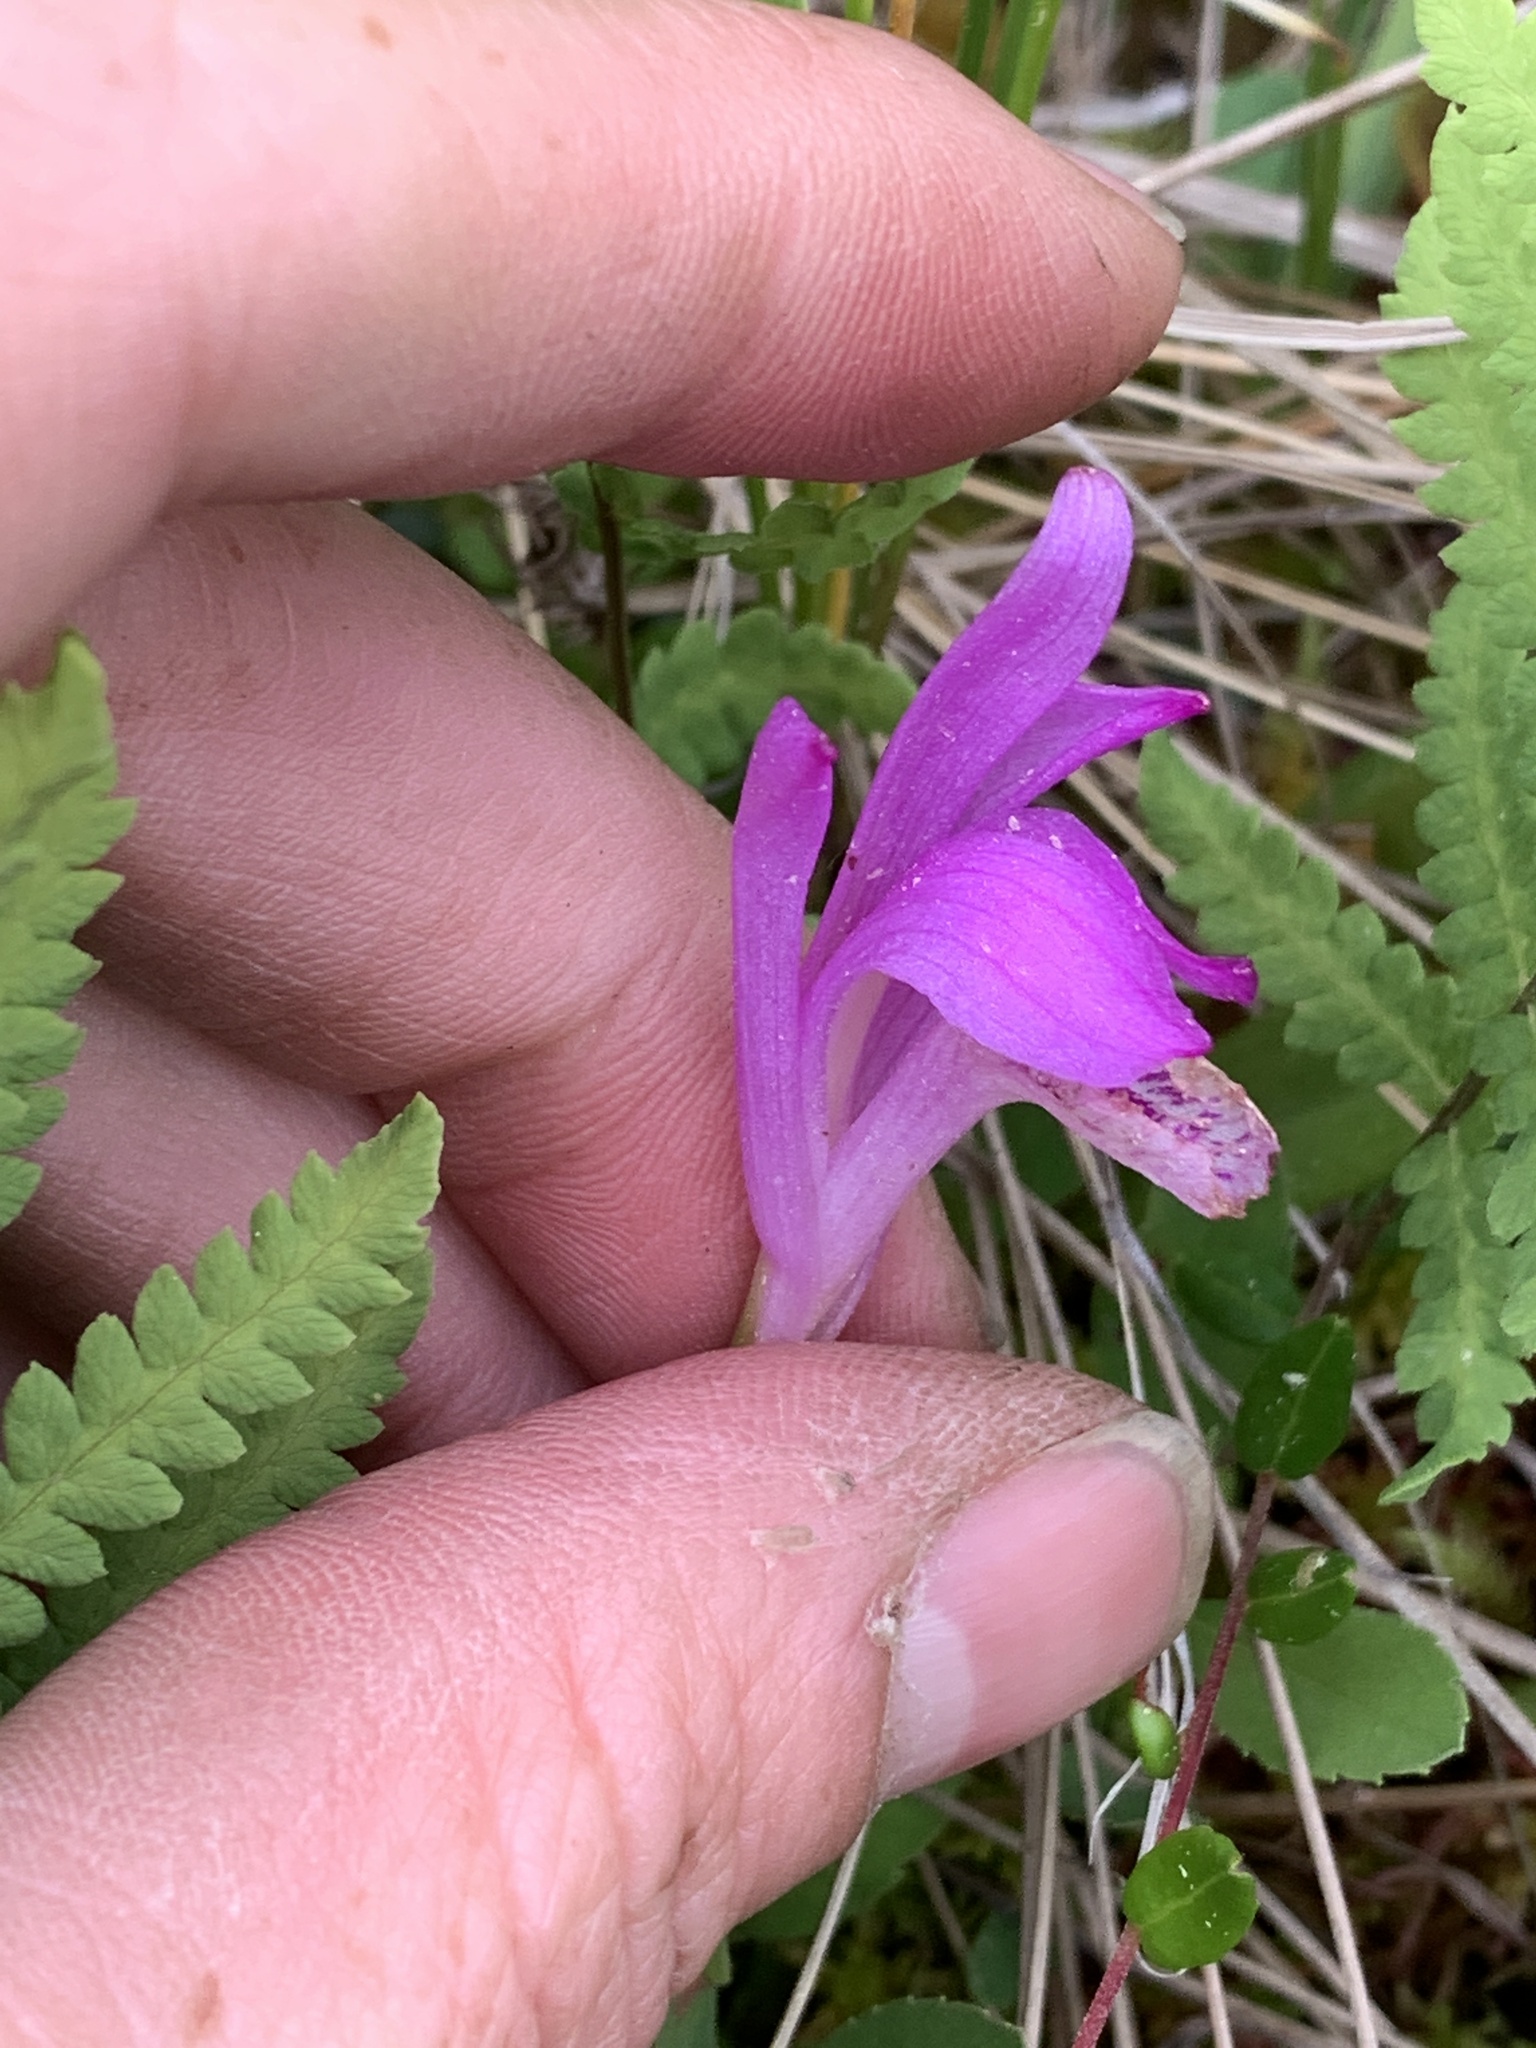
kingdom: Plantae
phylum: Tracheophyta
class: Liliopsida
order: Asparagales
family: Orchidaceae
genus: Arethusa
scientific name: Arethusa bulbosa
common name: Arethusa
